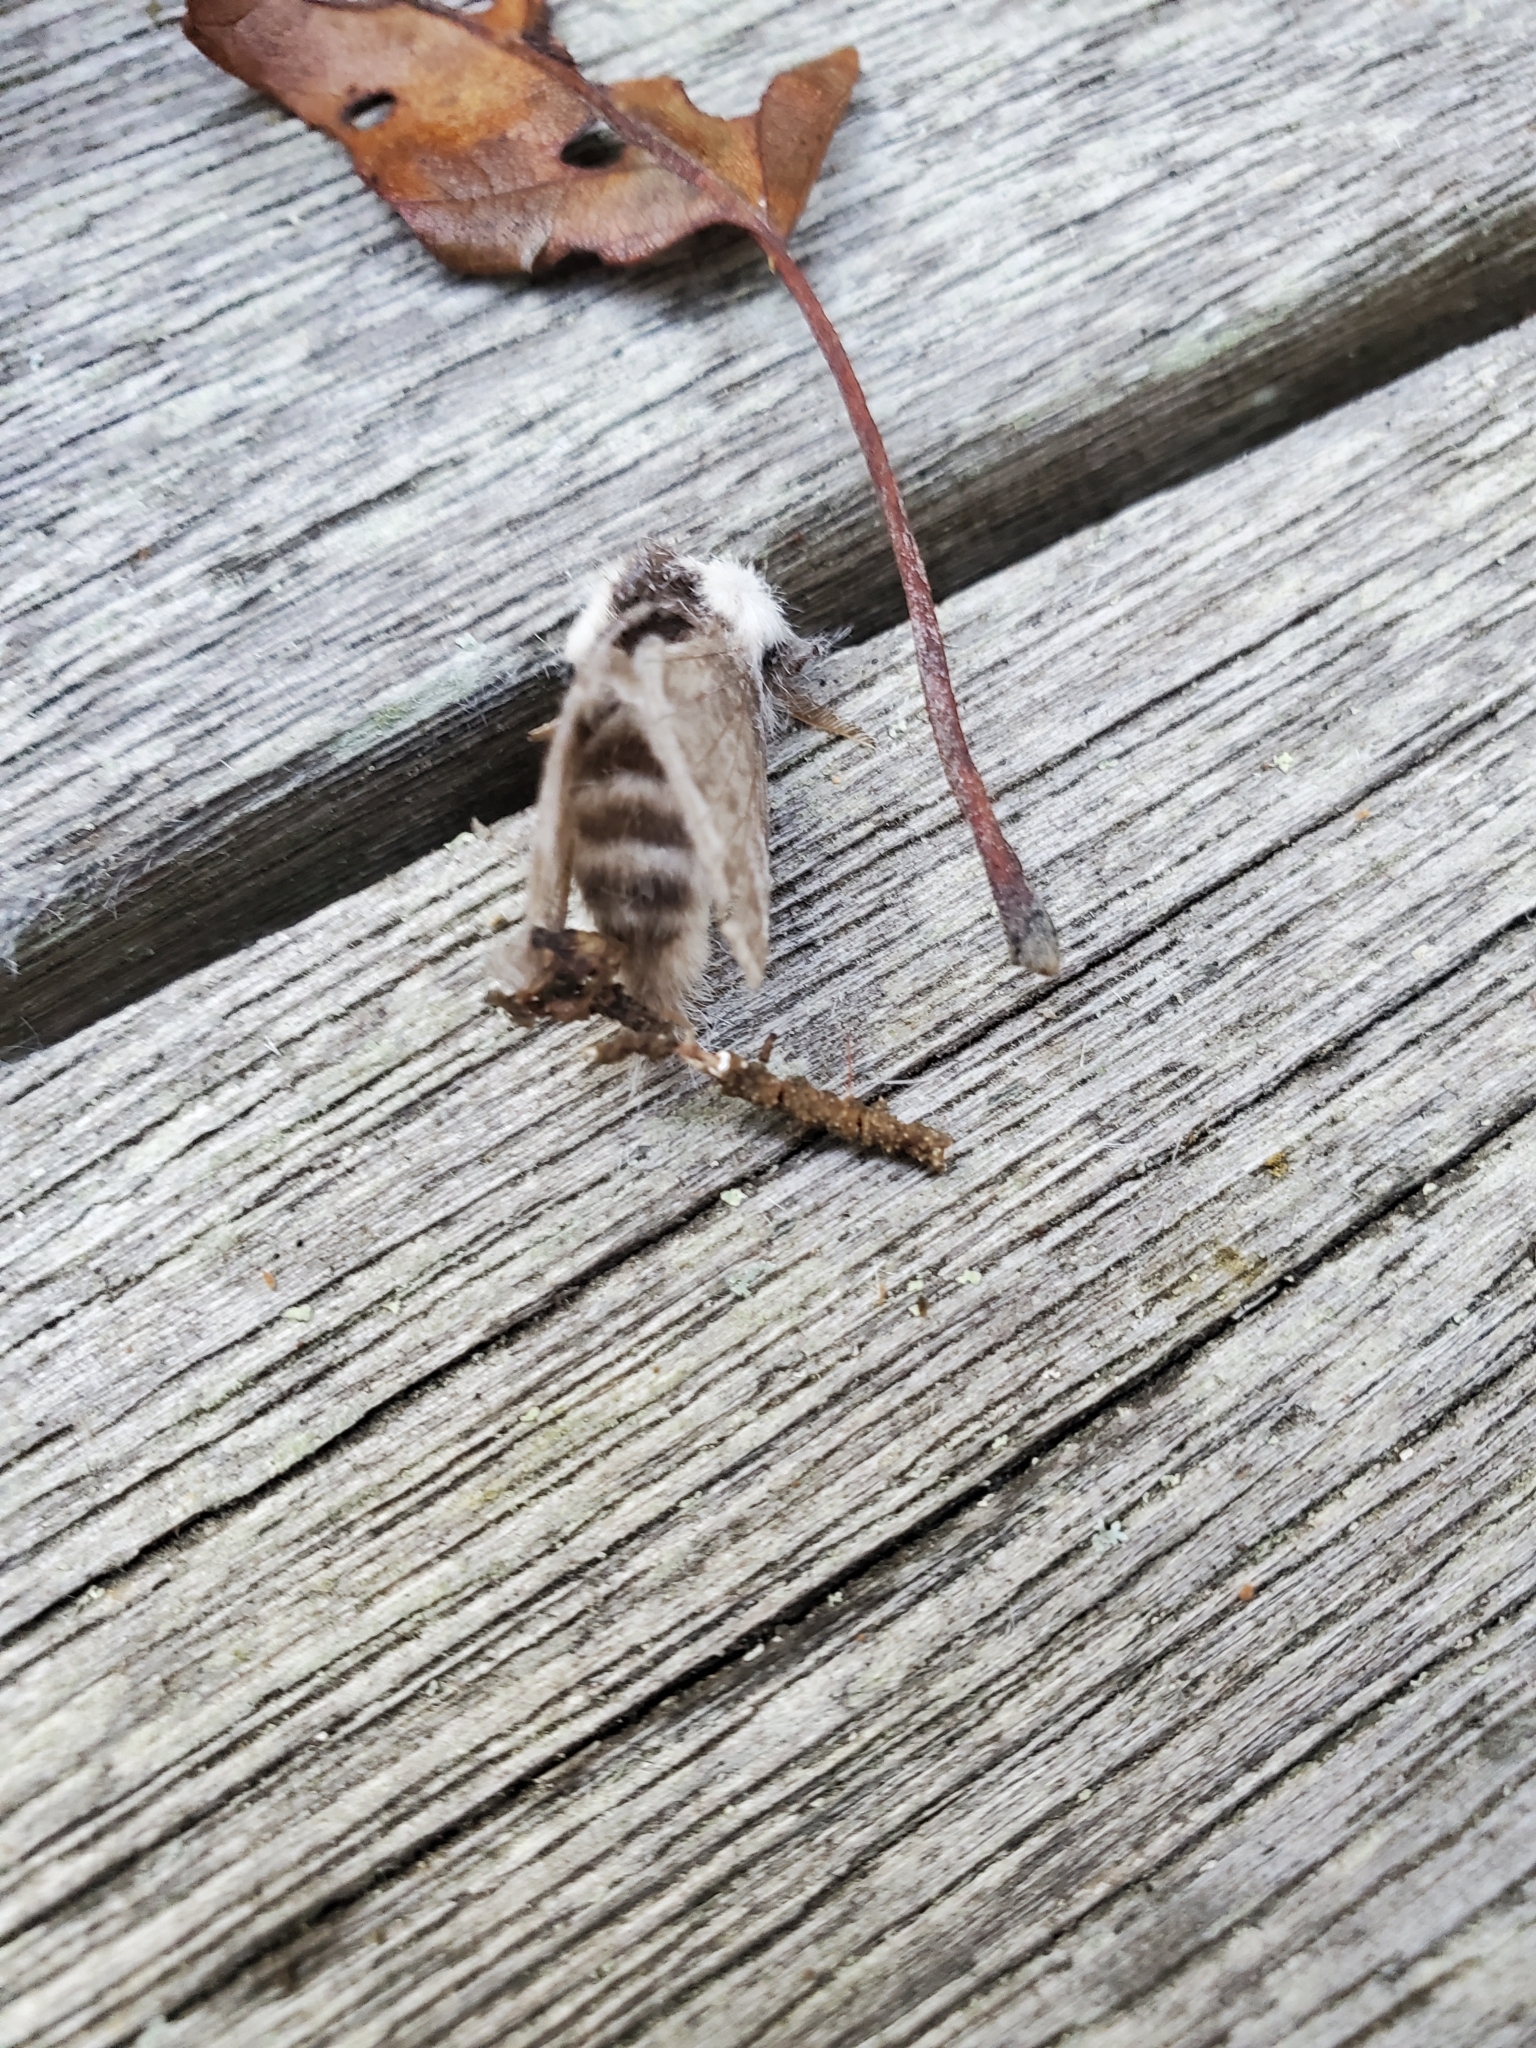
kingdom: Animalia
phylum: Arthropoda
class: Insecta
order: Lepidoptera
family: Lasiocampidae
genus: Tolype
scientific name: Tolype velleda
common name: Large tolype moth
